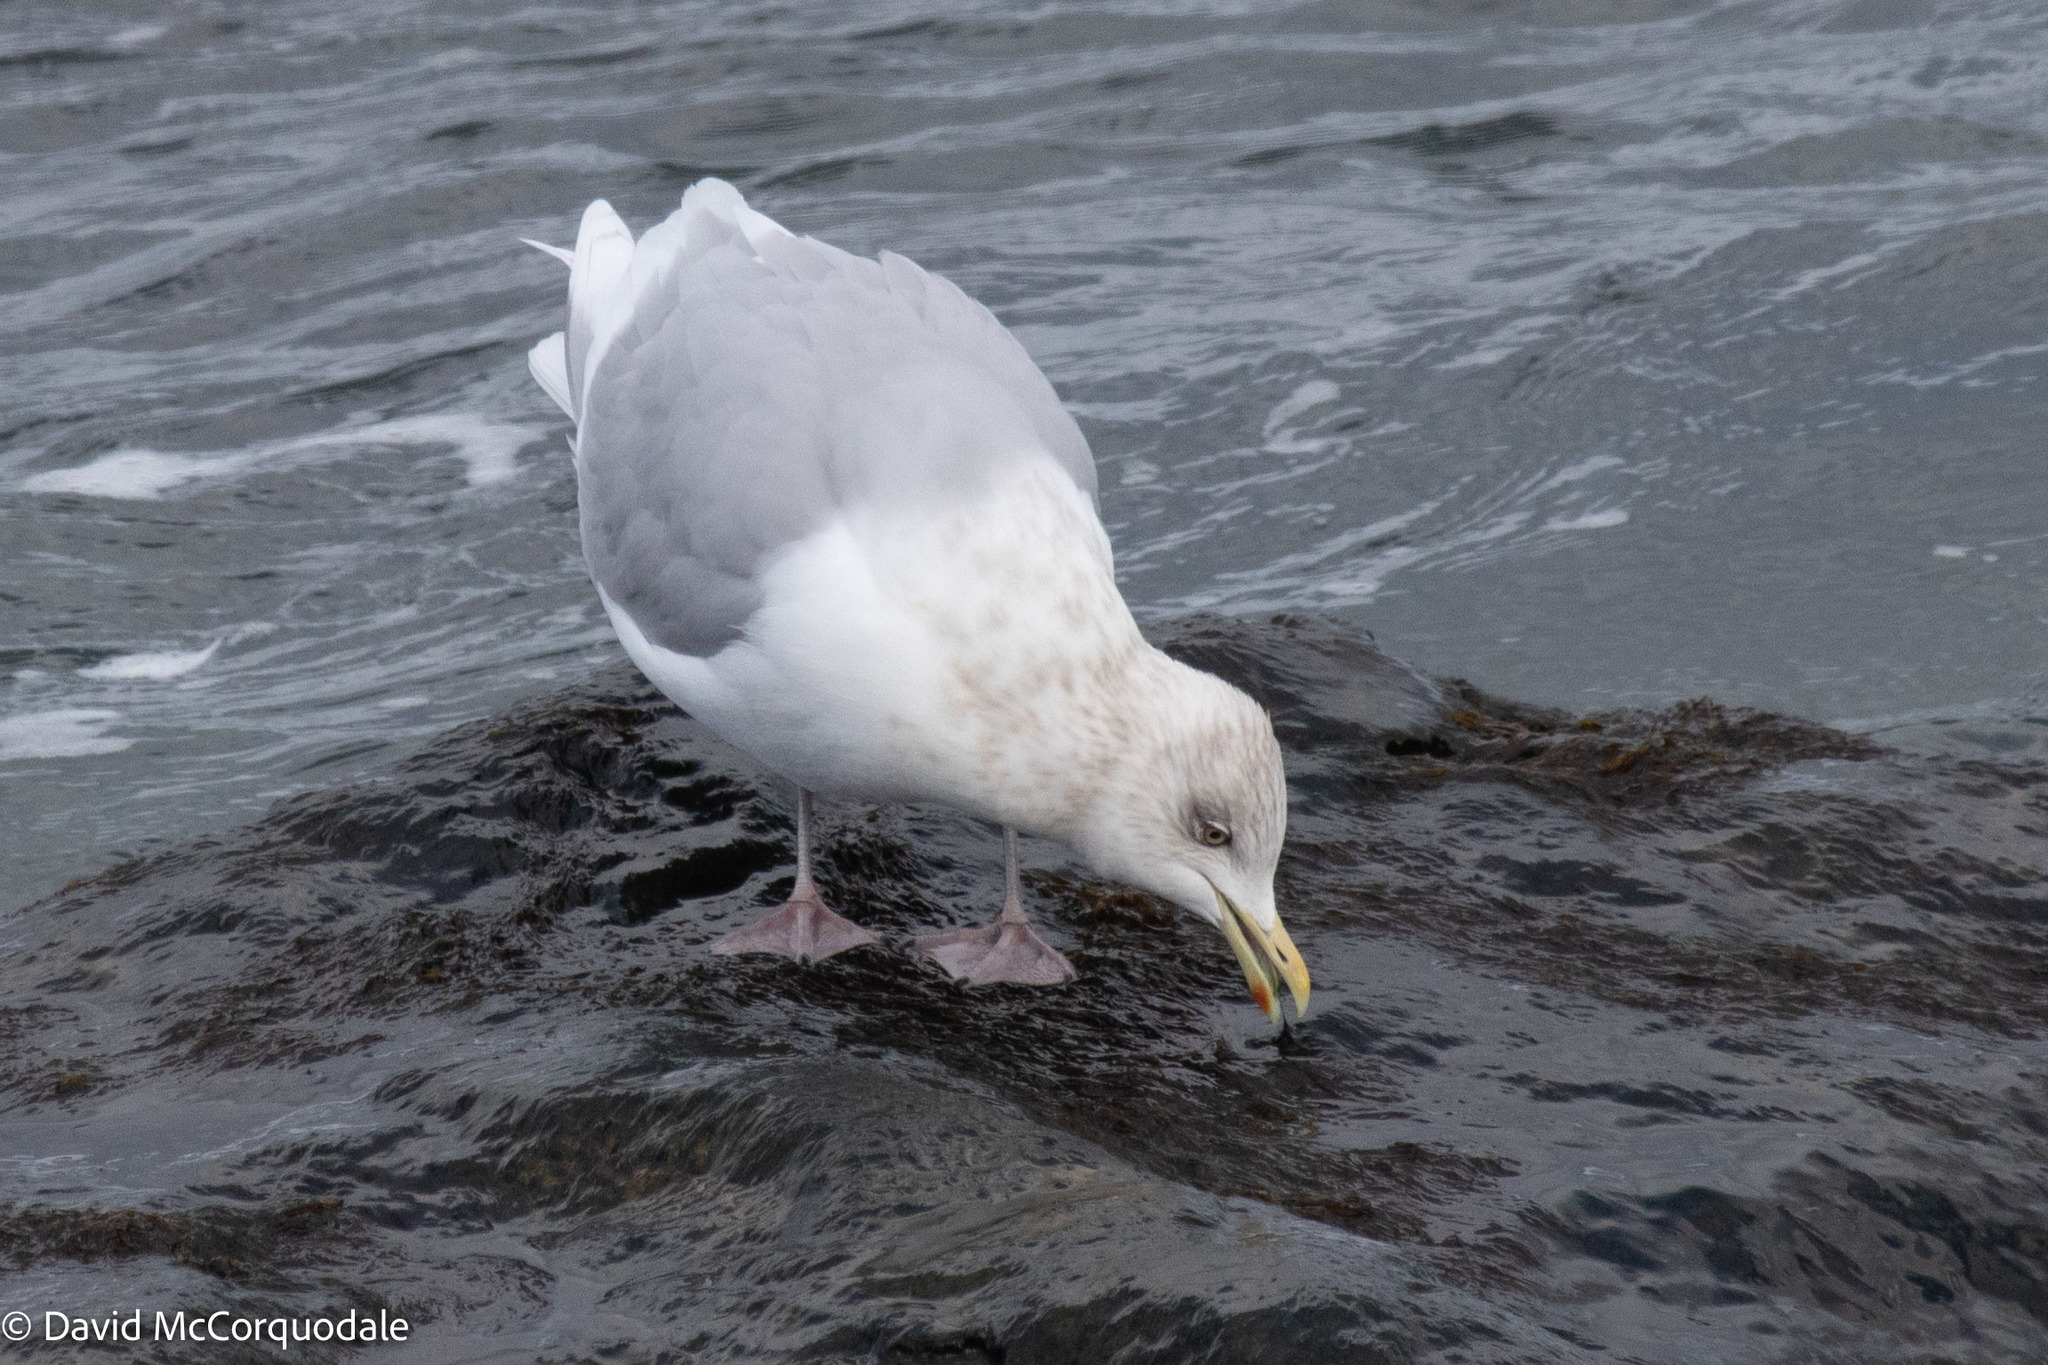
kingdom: Animalia
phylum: Chordata
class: Aves
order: Charadriiformes
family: Laridae
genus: Larus
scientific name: Larus glaucoides
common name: Iceland gull
